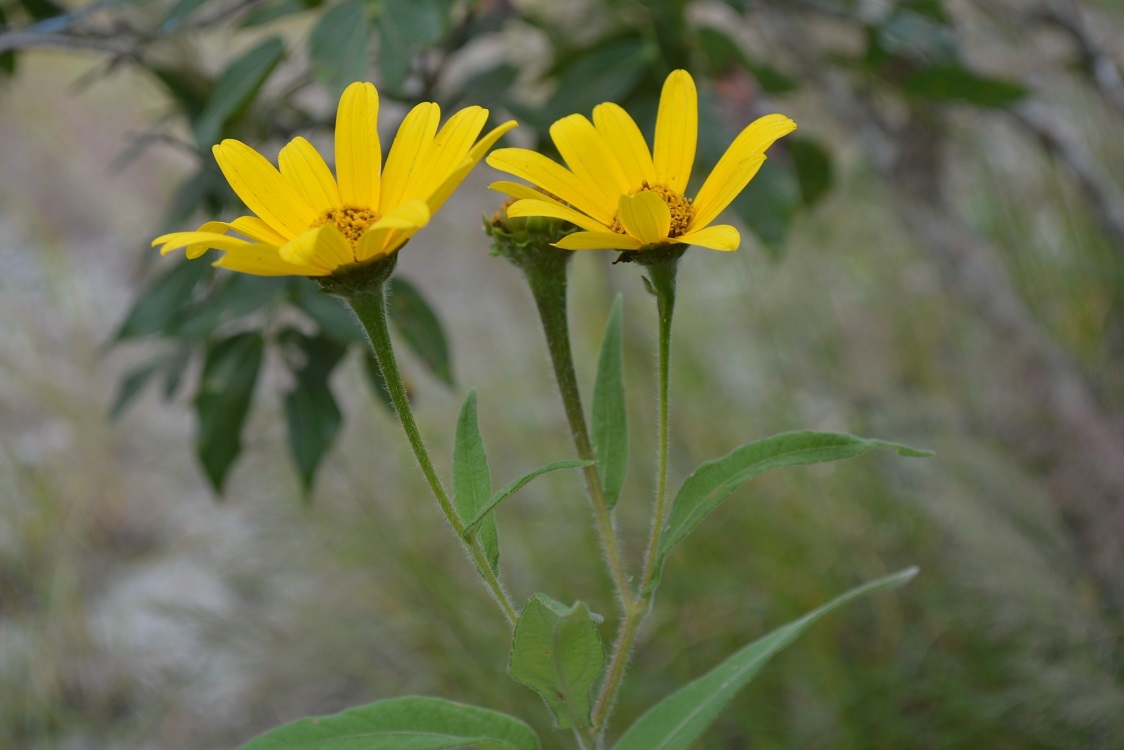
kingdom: Plantae
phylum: Tracheophyta
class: Magnoliopsida
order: Asterales
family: Asteraceae
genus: Tithonia
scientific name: Tithonia longiradiata
